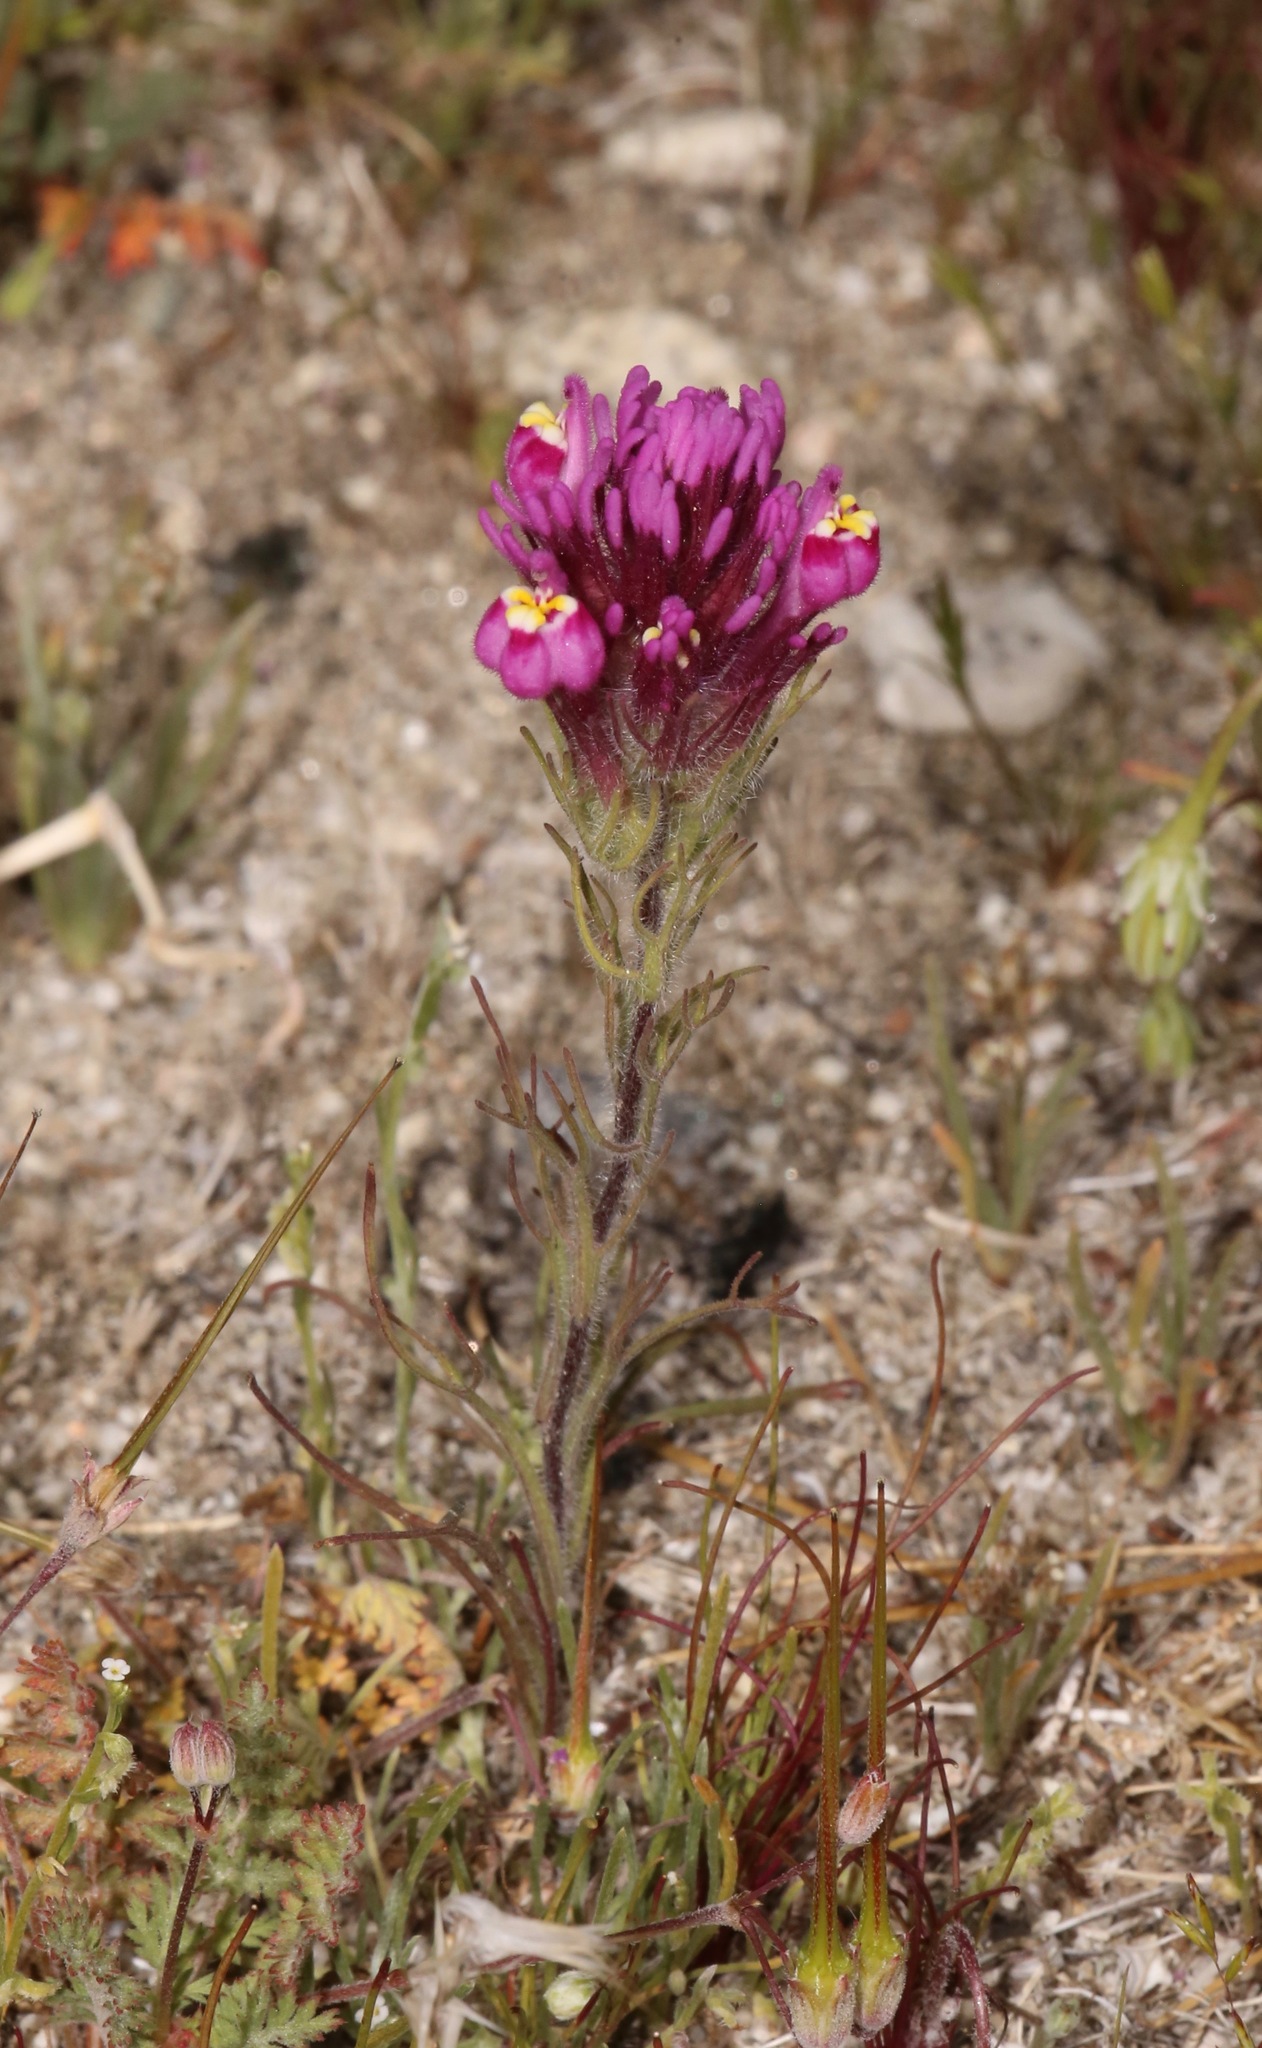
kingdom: Plantae
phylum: Tracheophyta
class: Magnoliopsida
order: Lamiales
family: Orobanchaceae
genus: Castilleja
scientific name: Castilleja exserta
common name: Purple owl-clover
